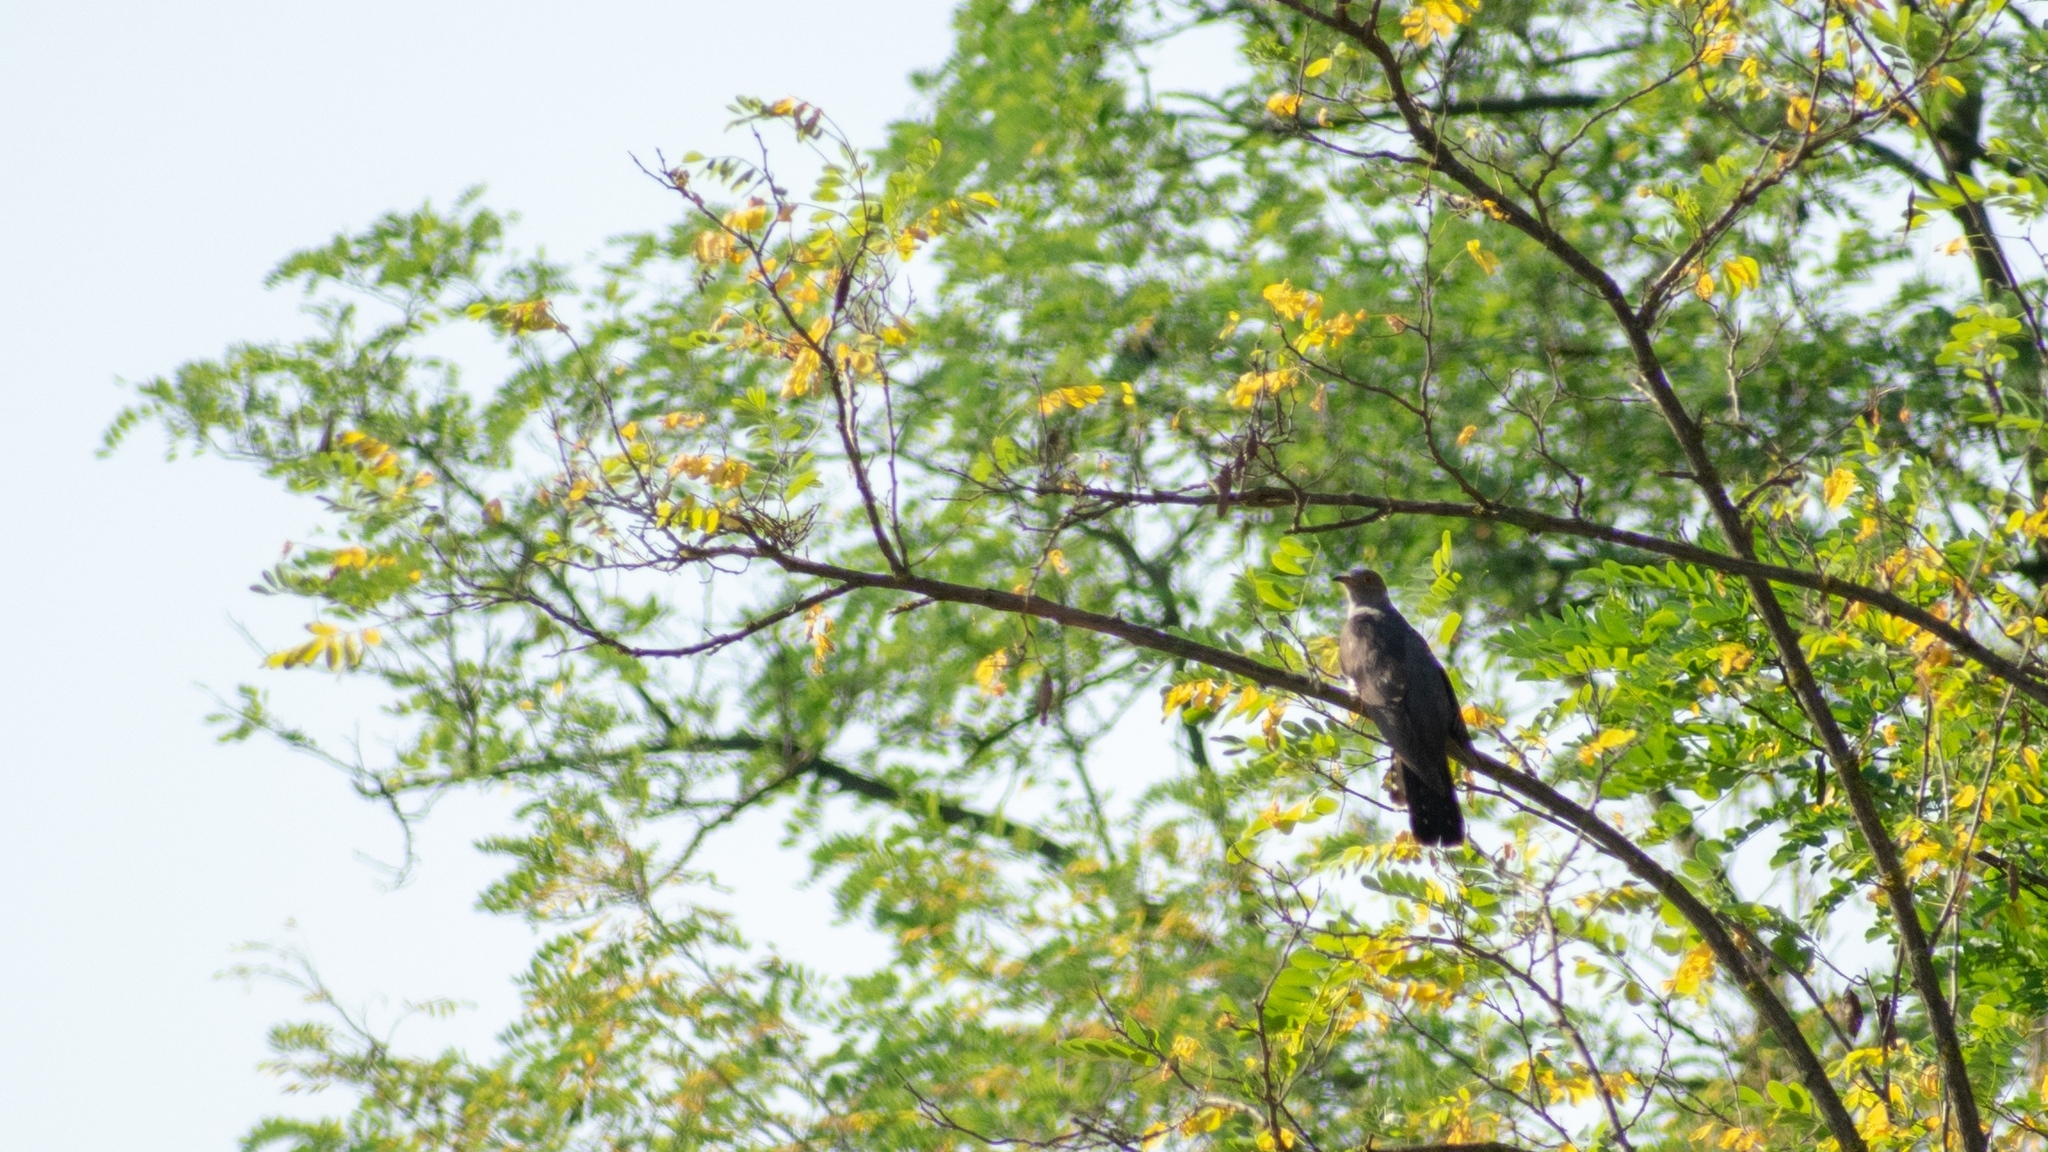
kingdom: Animalia
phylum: Chordata
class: Aves
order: Cuculiformes
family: Cuculidae
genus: Cuculus
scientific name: Cuculus canorus
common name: Common cuckoo
